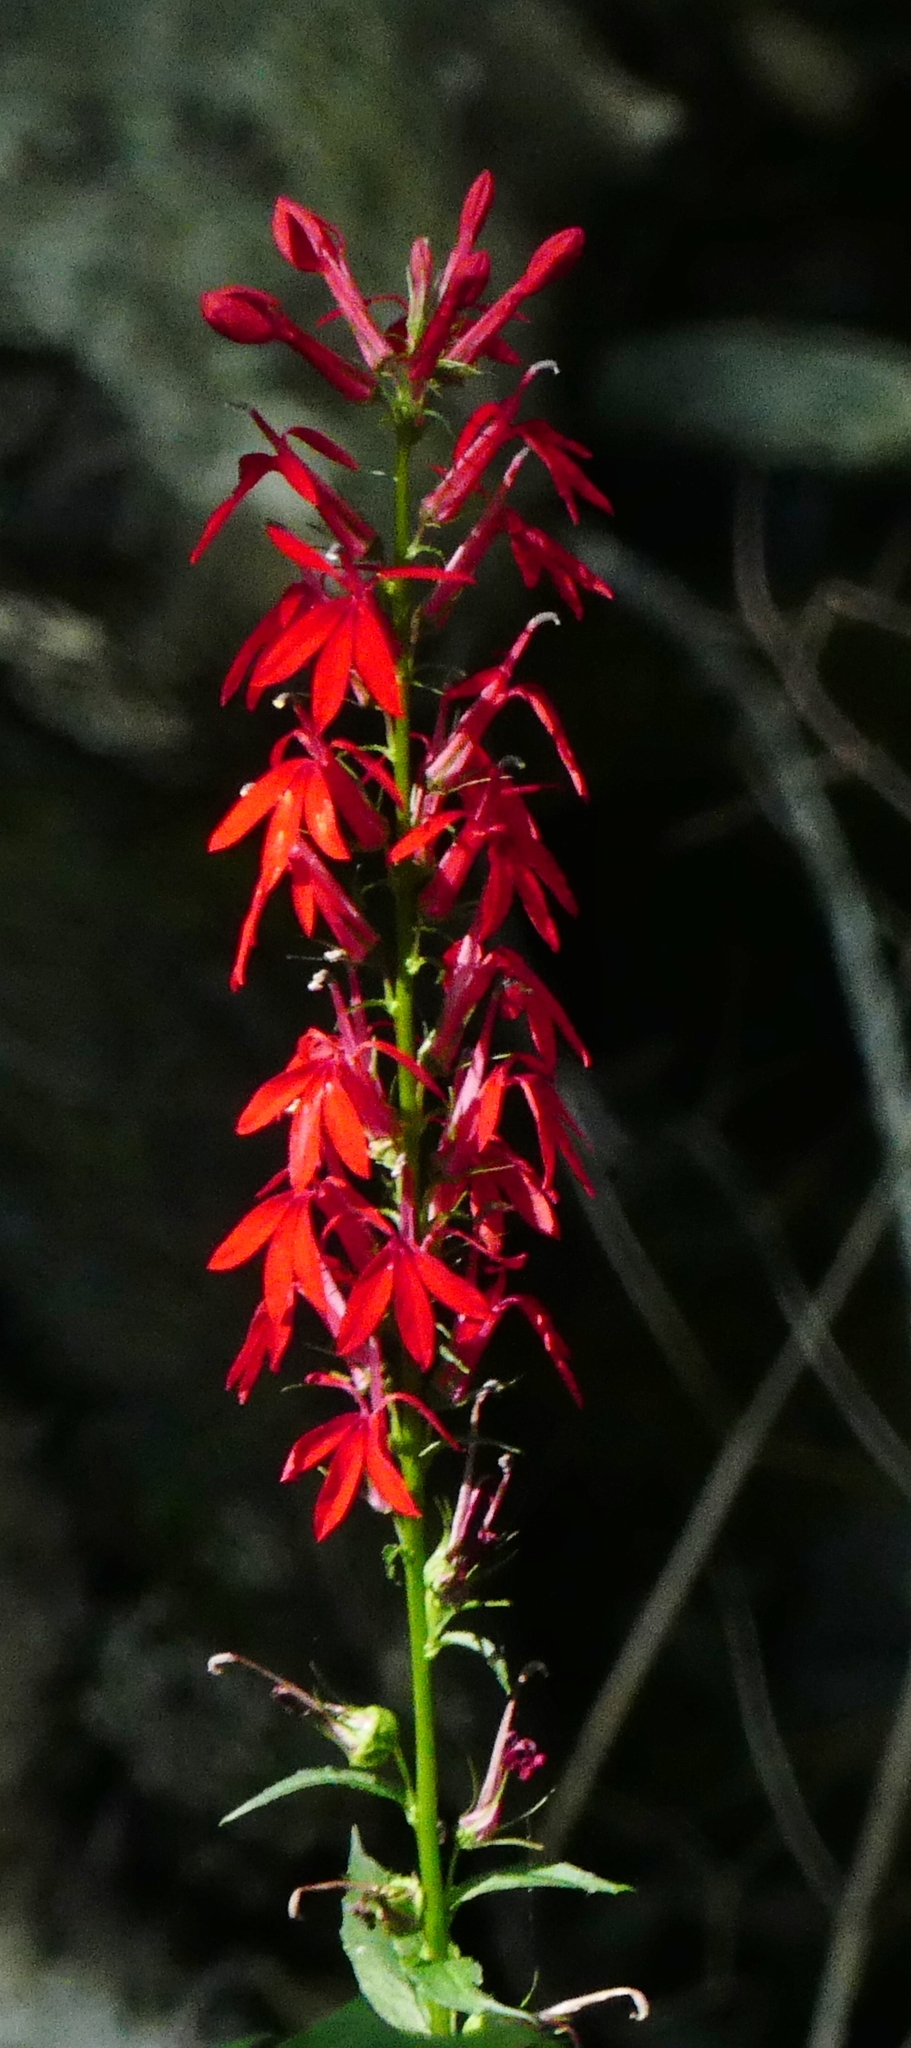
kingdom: Plantae
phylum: Tracheophyta
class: Magnoliopsida
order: Asterales
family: Campanulaceae
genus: Lobelia
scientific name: Lobelia cardinalis
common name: Cardinal flower
